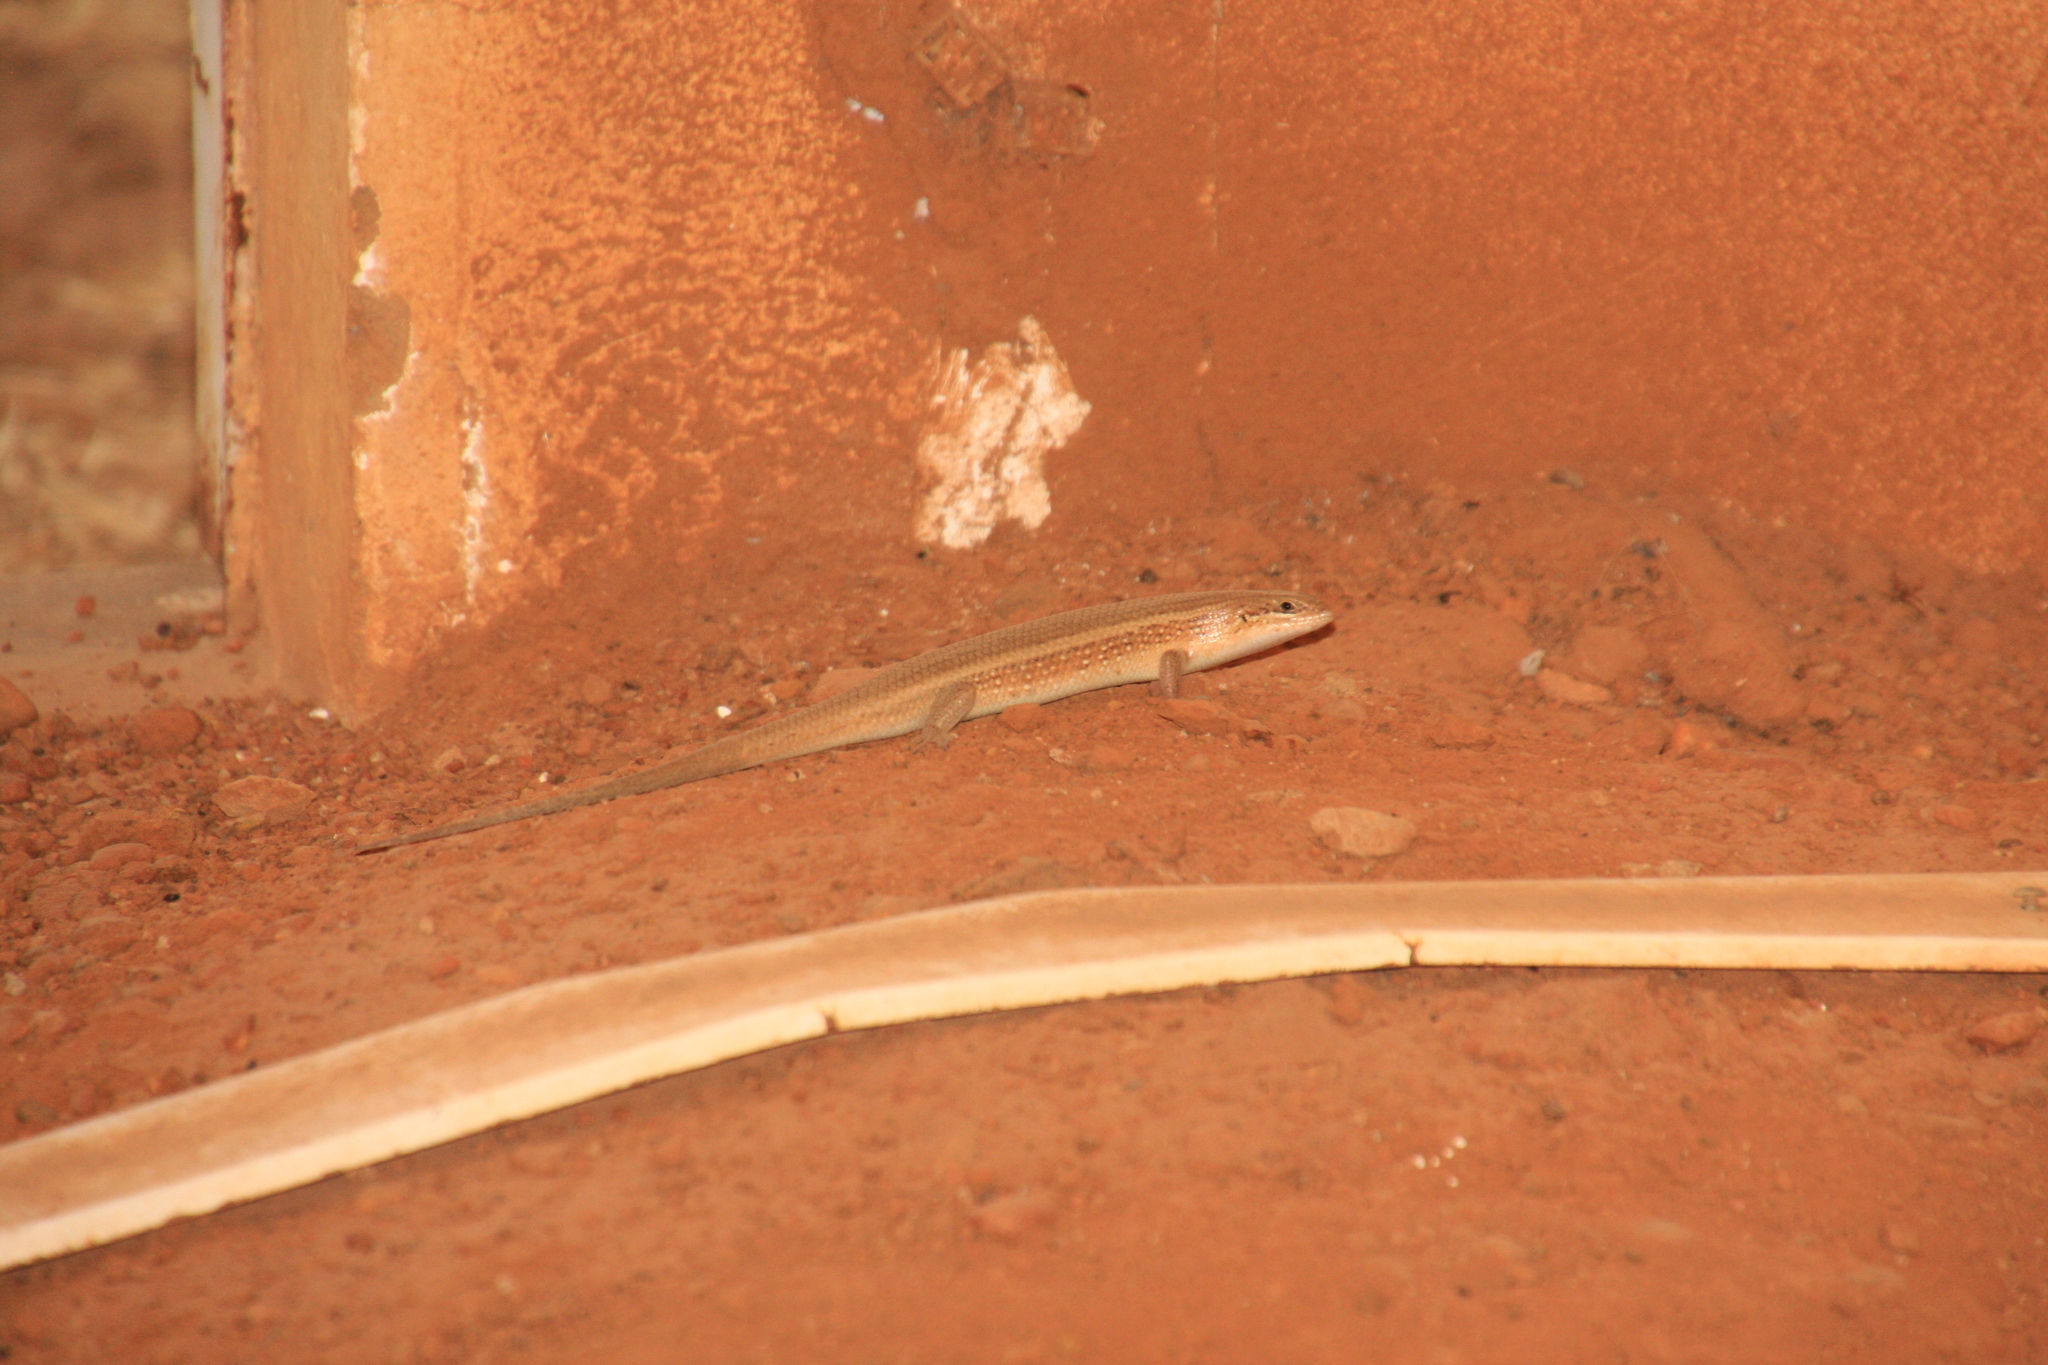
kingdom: Animalia
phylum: Chordata
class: Squamata
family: Scincidae
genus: Trachylepis
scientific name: Trachylepis perrotetii
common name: Teita mabuya
